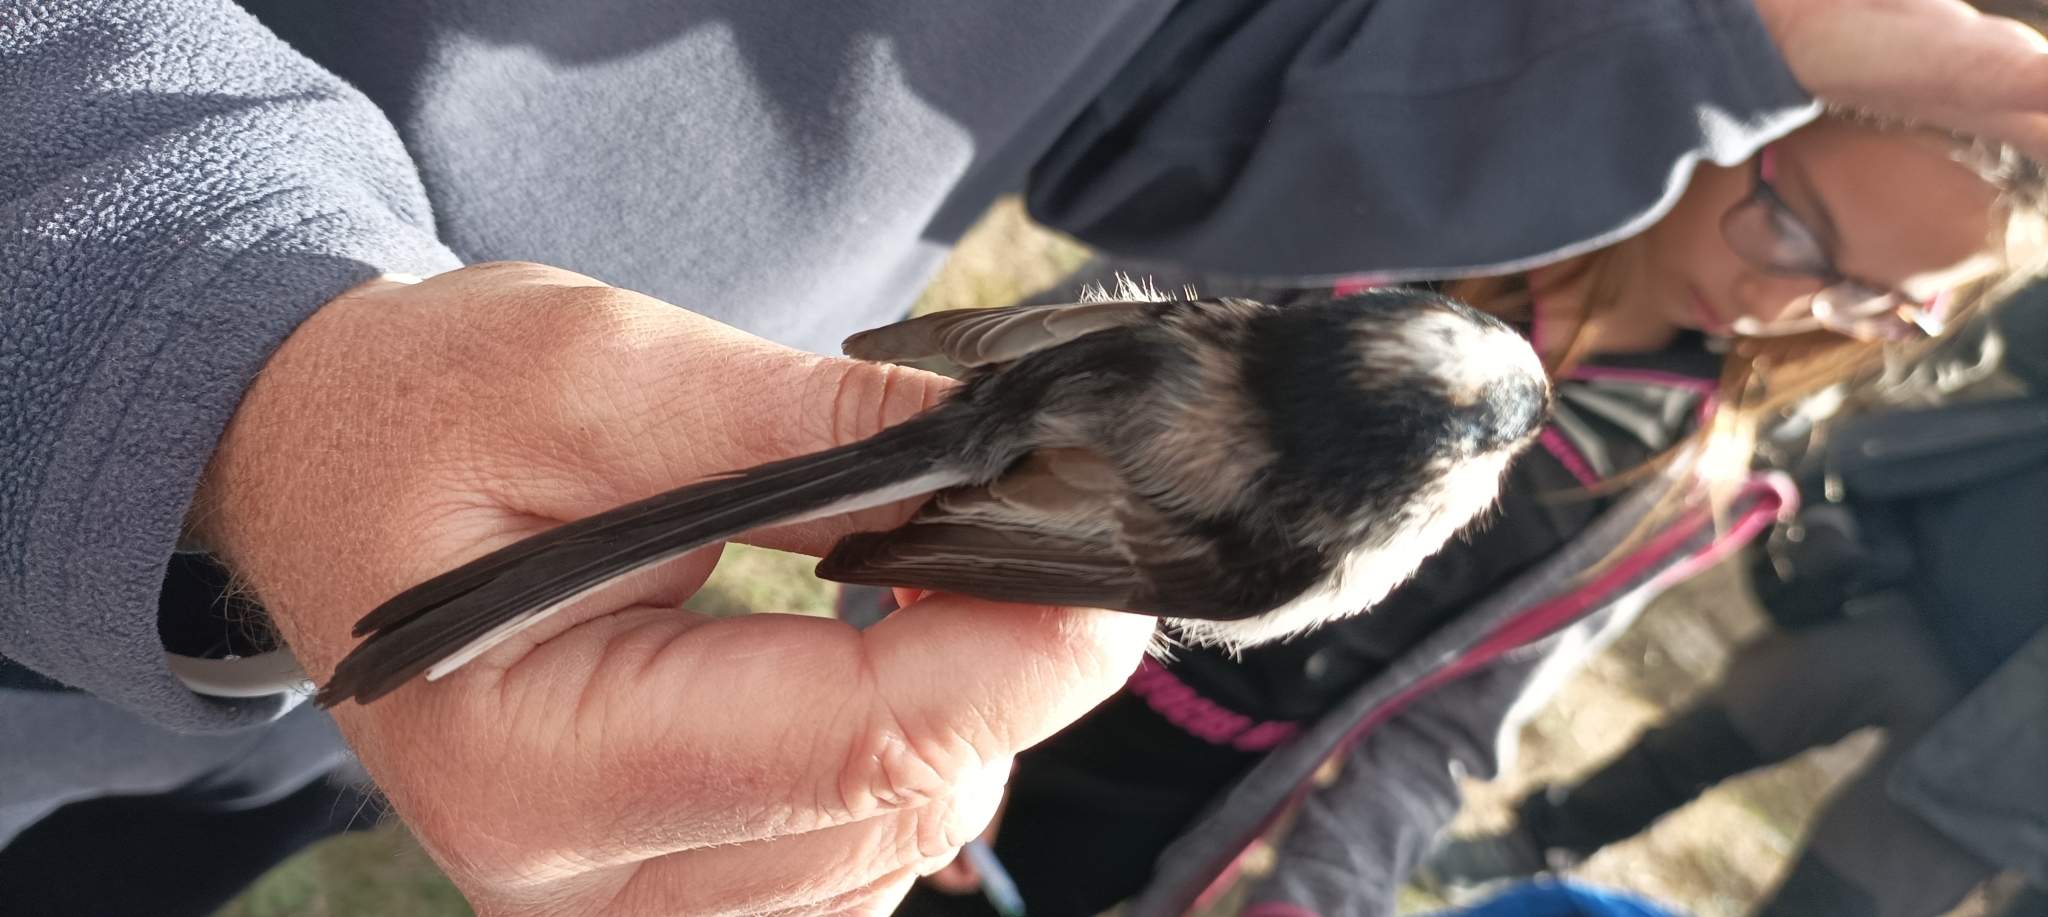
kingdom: Animalia
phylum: Chordata
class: Aves
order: Passeriformes
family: Aegithalidae
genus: Aegithalos
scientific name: Aegithalos caudatus
